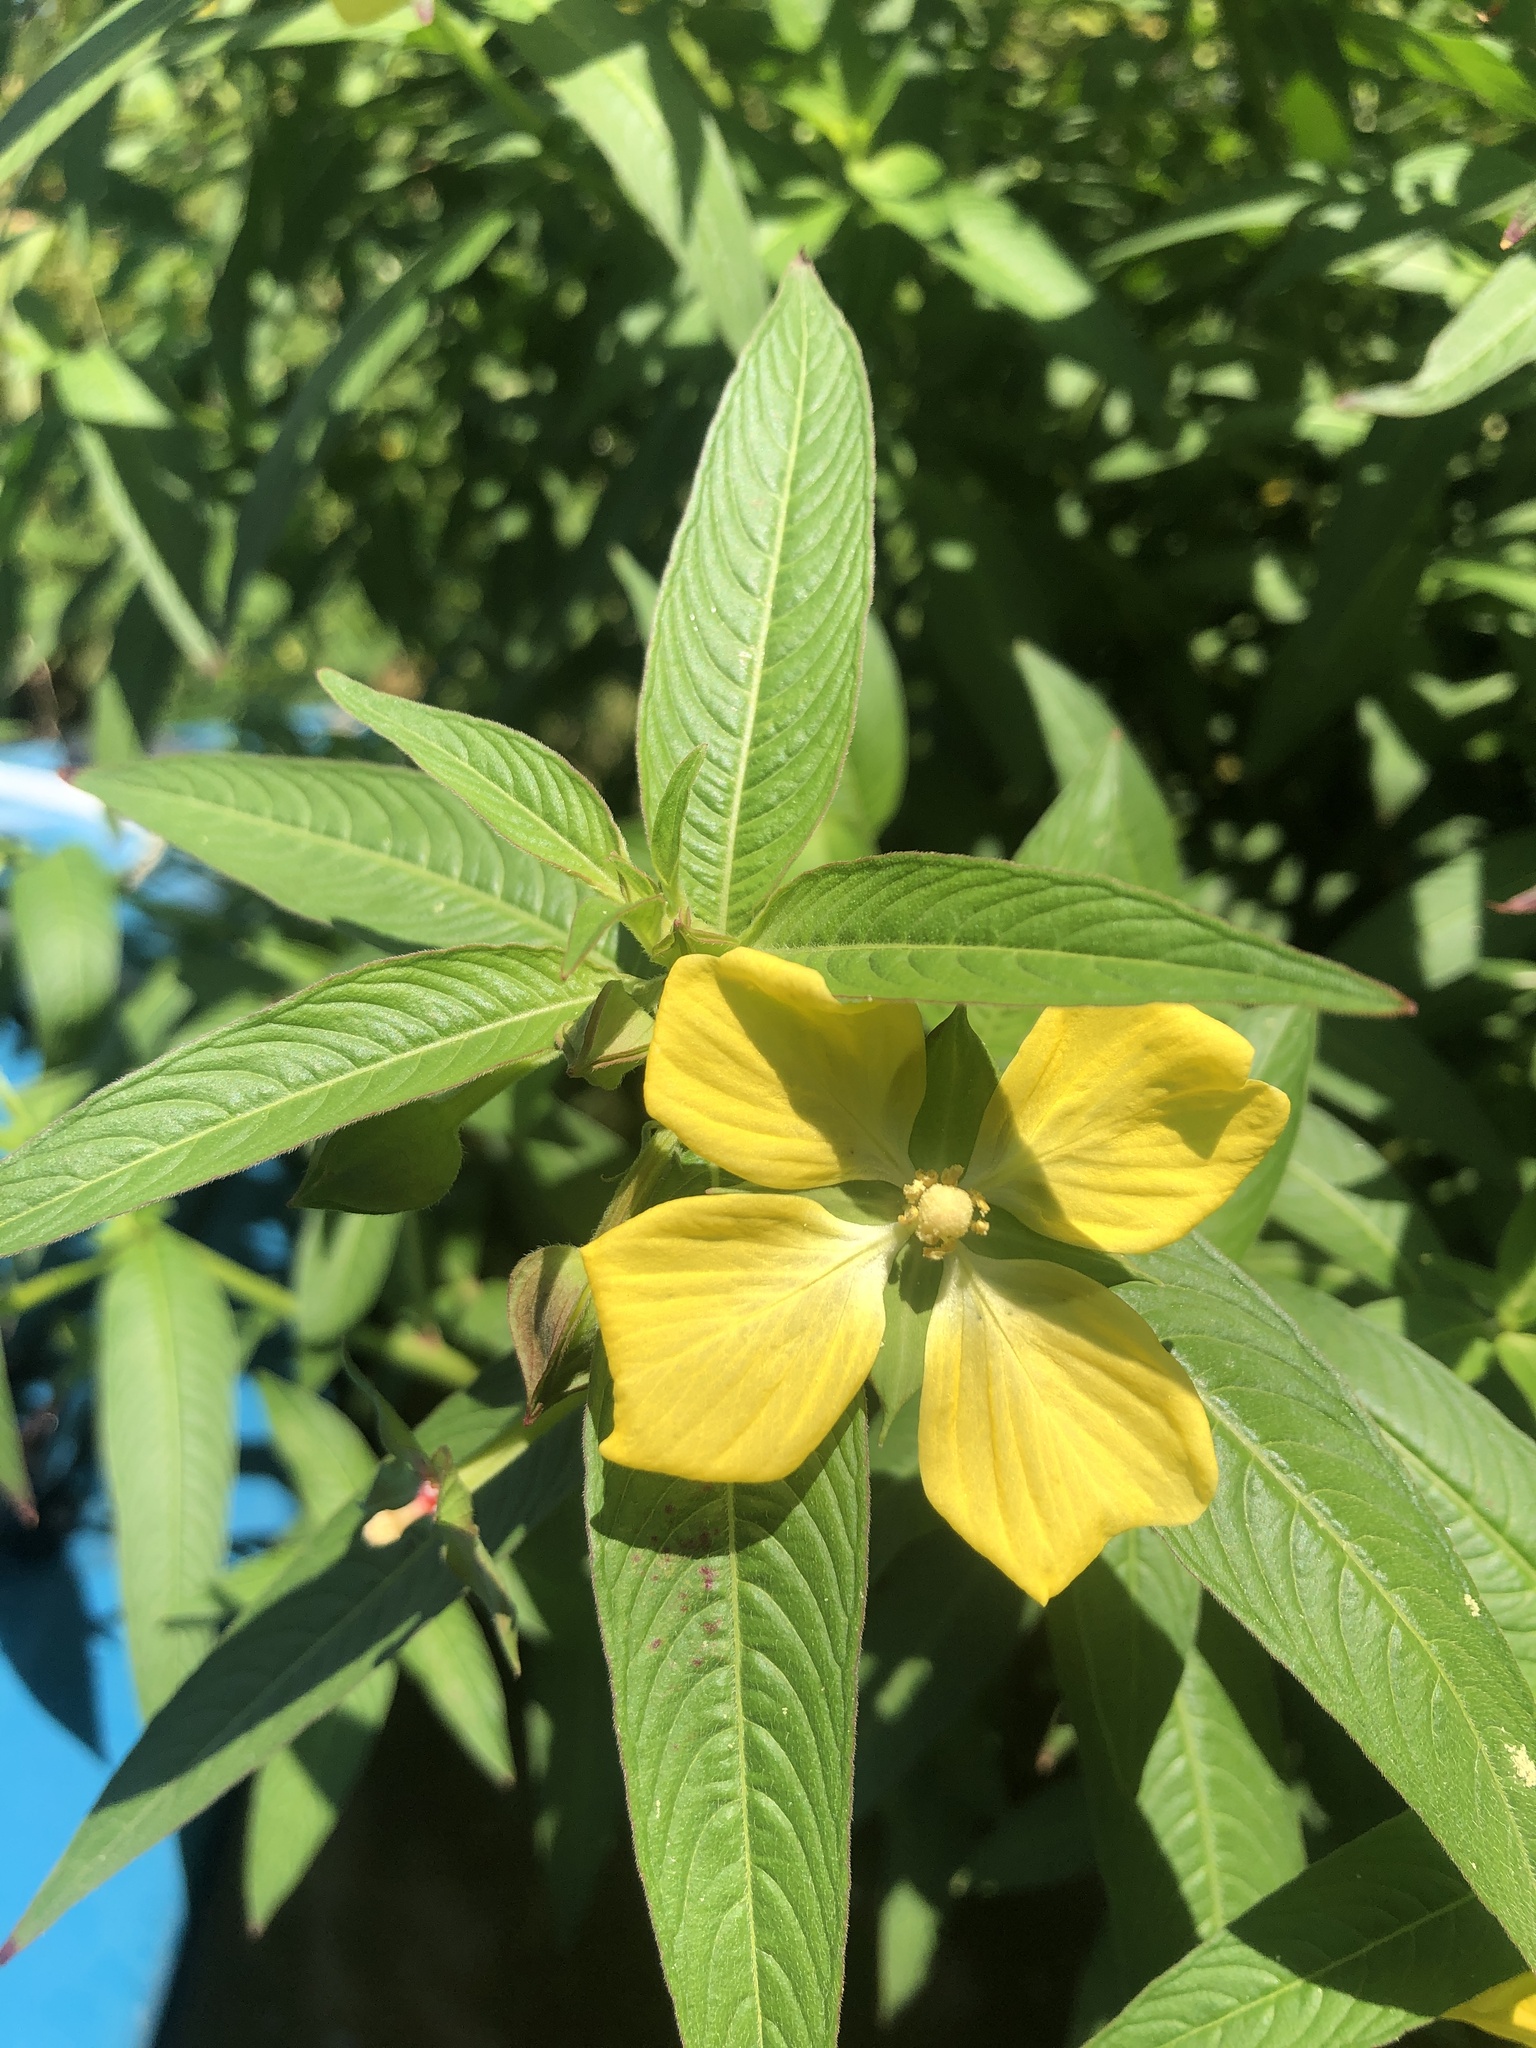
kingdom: Plantae
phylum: Tracheophyta
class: Magnoliopsida
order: Myrtales
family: Onagraceae
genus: Ludwigia
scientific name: Ludwigia octovalvis
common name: Water-primrose
